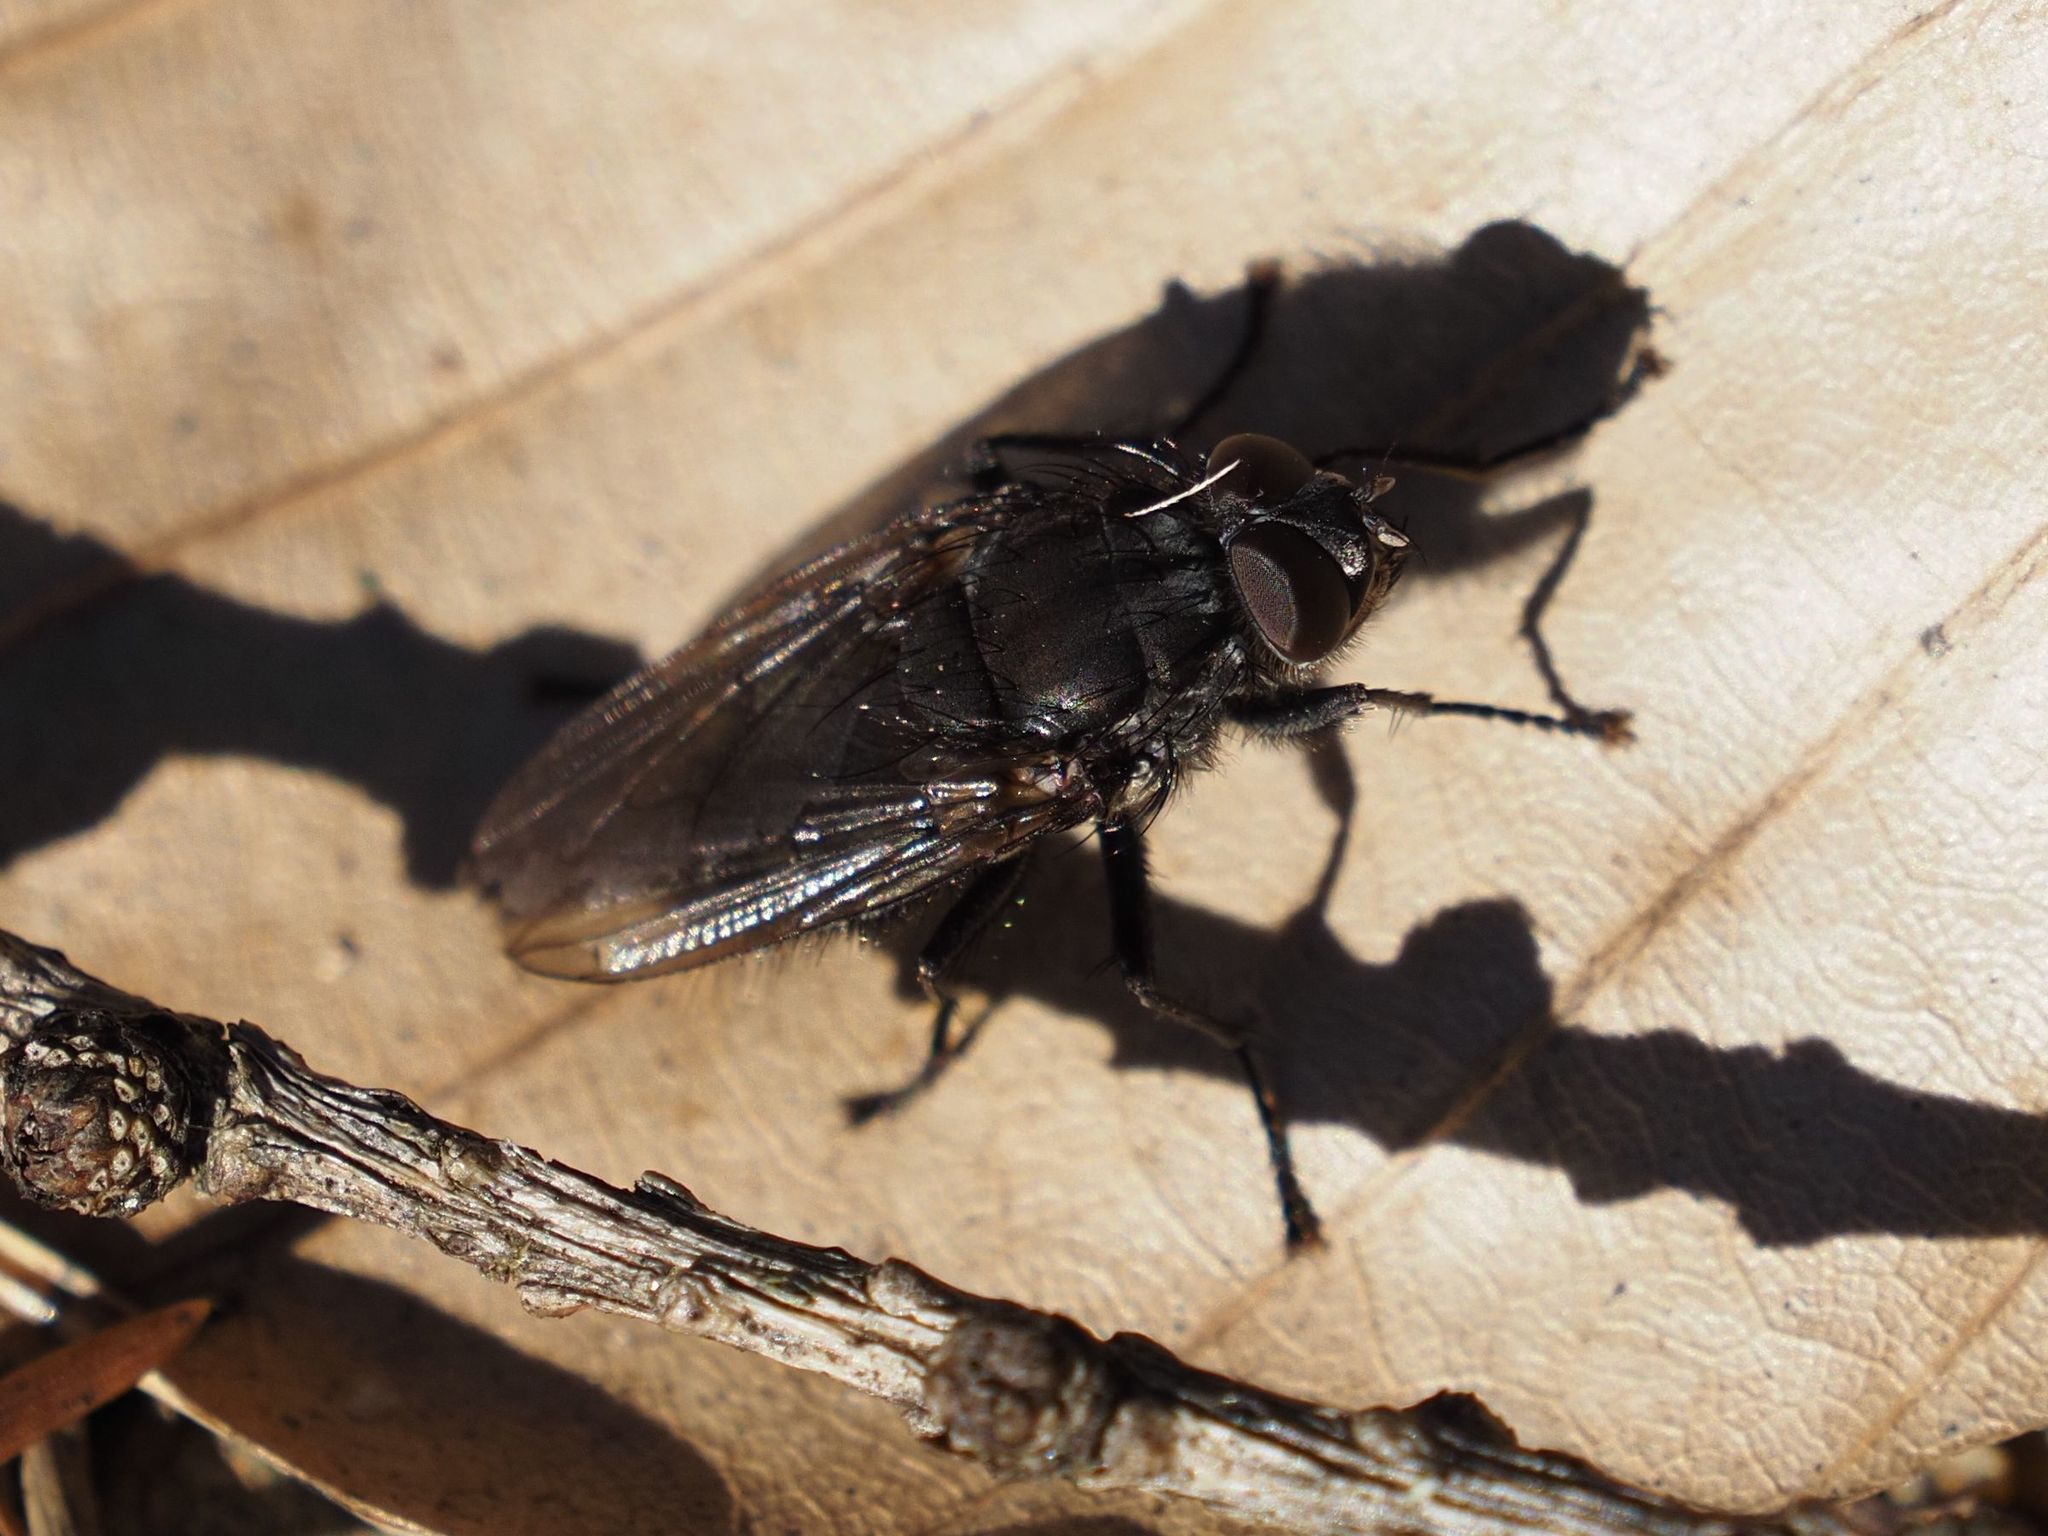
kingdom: Animalia
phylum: Arthropoda
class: Insecta
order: Diptera
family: Polleniidae
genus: Pollenia
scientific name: Pollenia vagabunda
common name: Vagabund cluster fly
